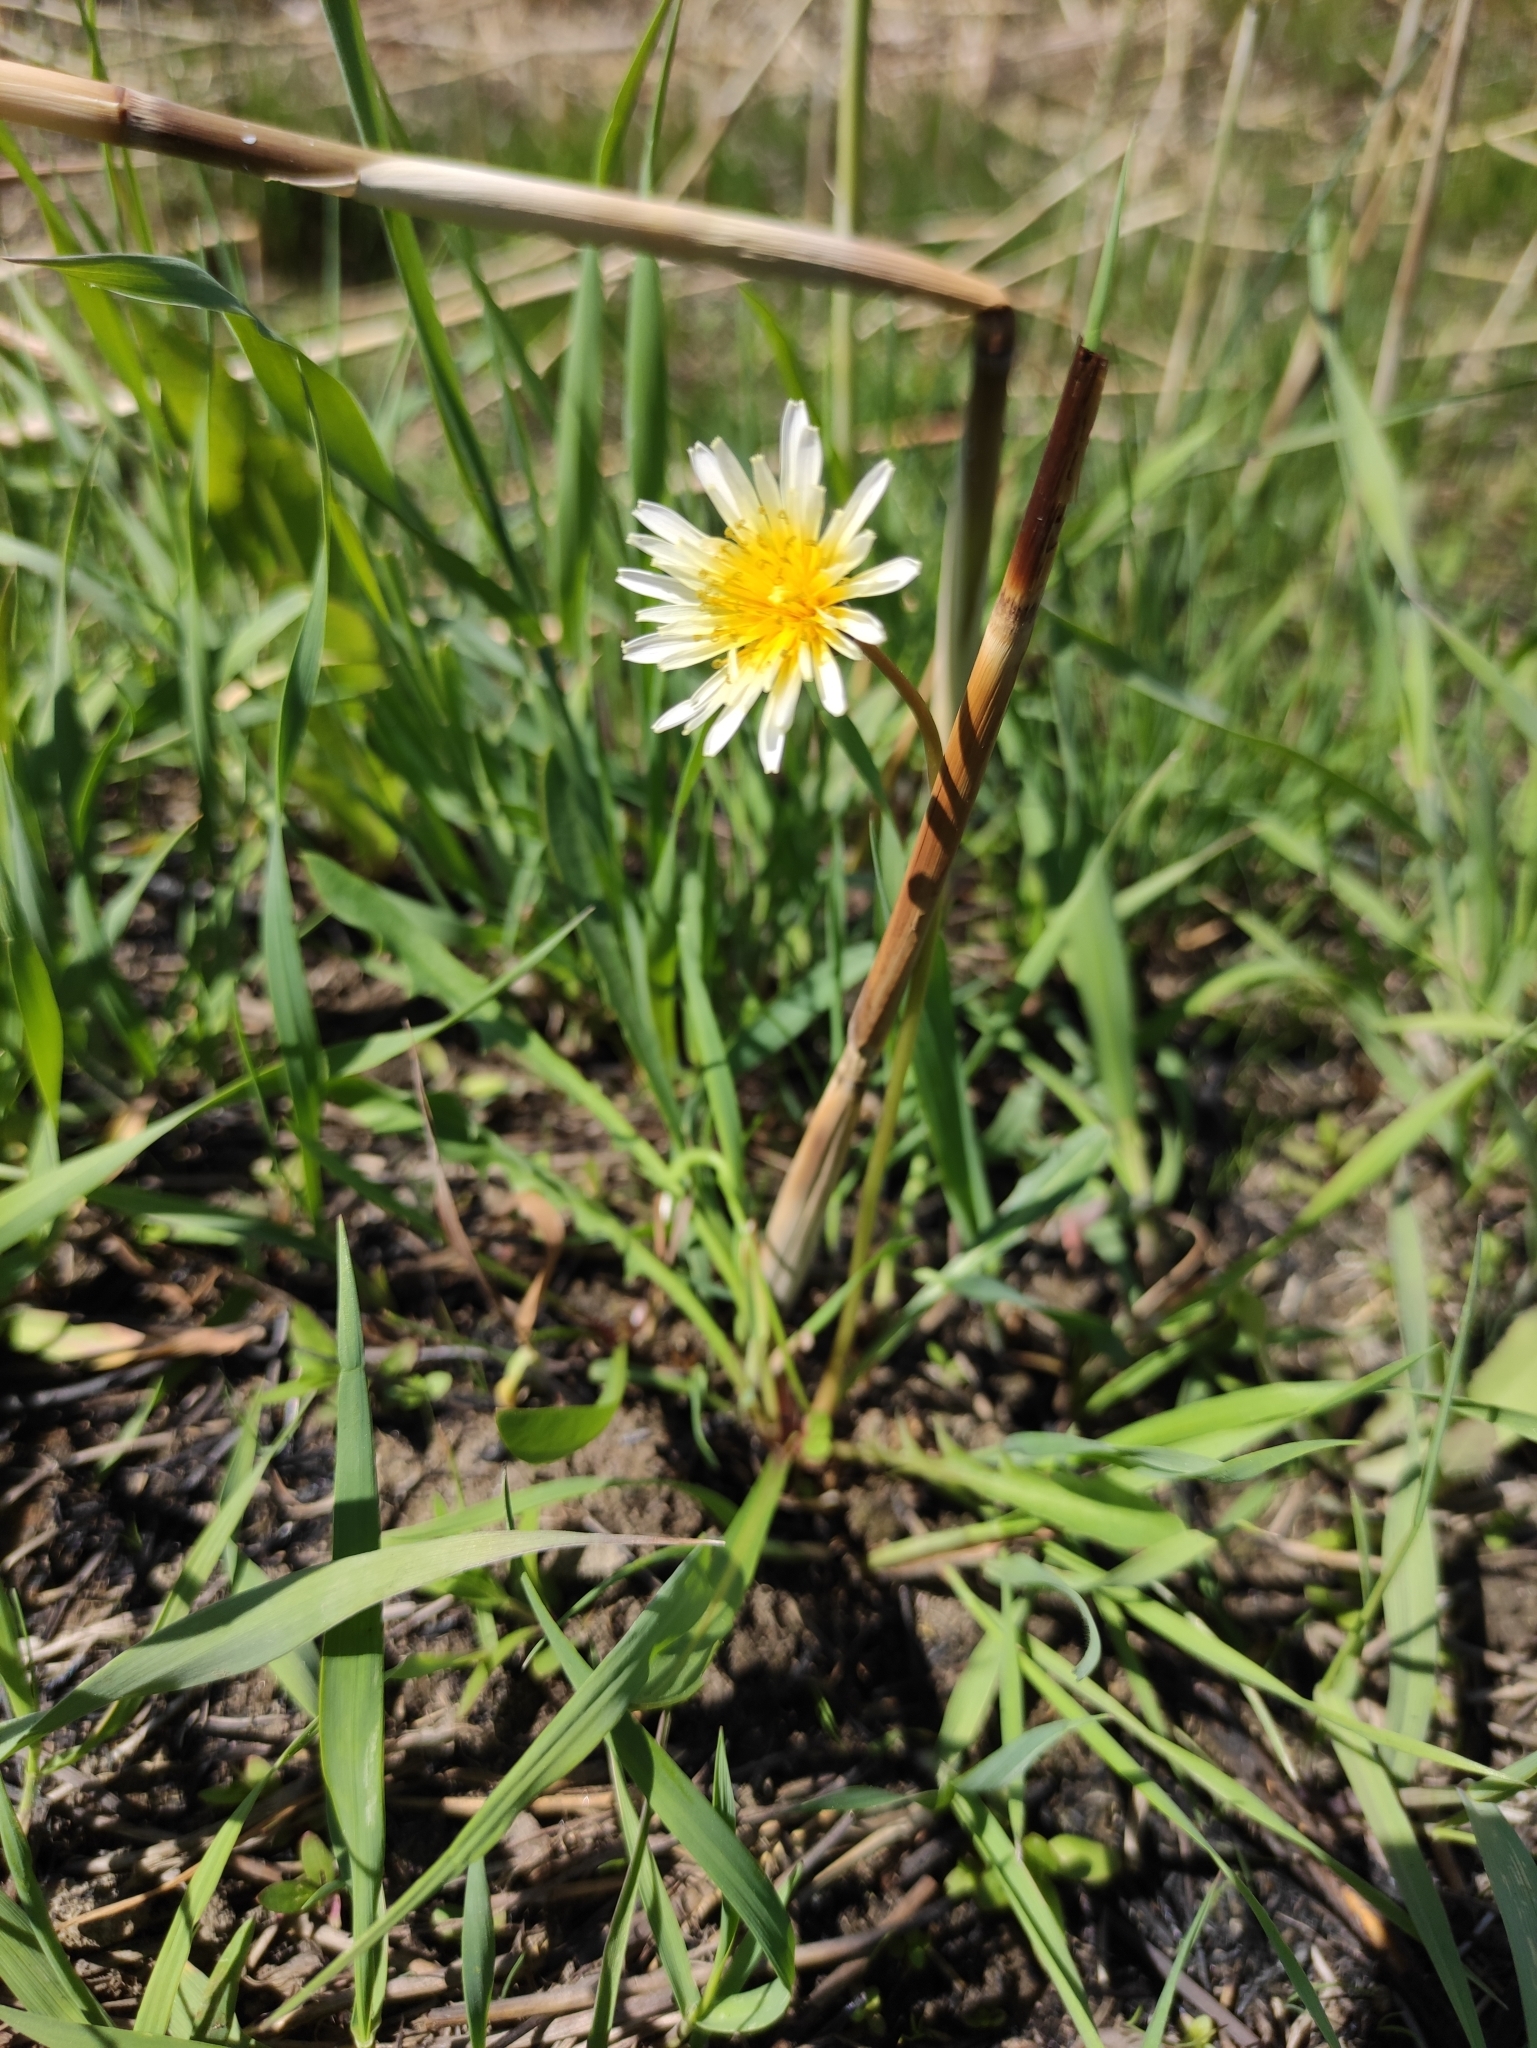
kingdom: Plantae
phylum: Tracheophyta
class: Magnoliopsida
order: Asterales
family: Asteraceae
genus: Taraxacum
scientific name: Taraxacum leucanthum
